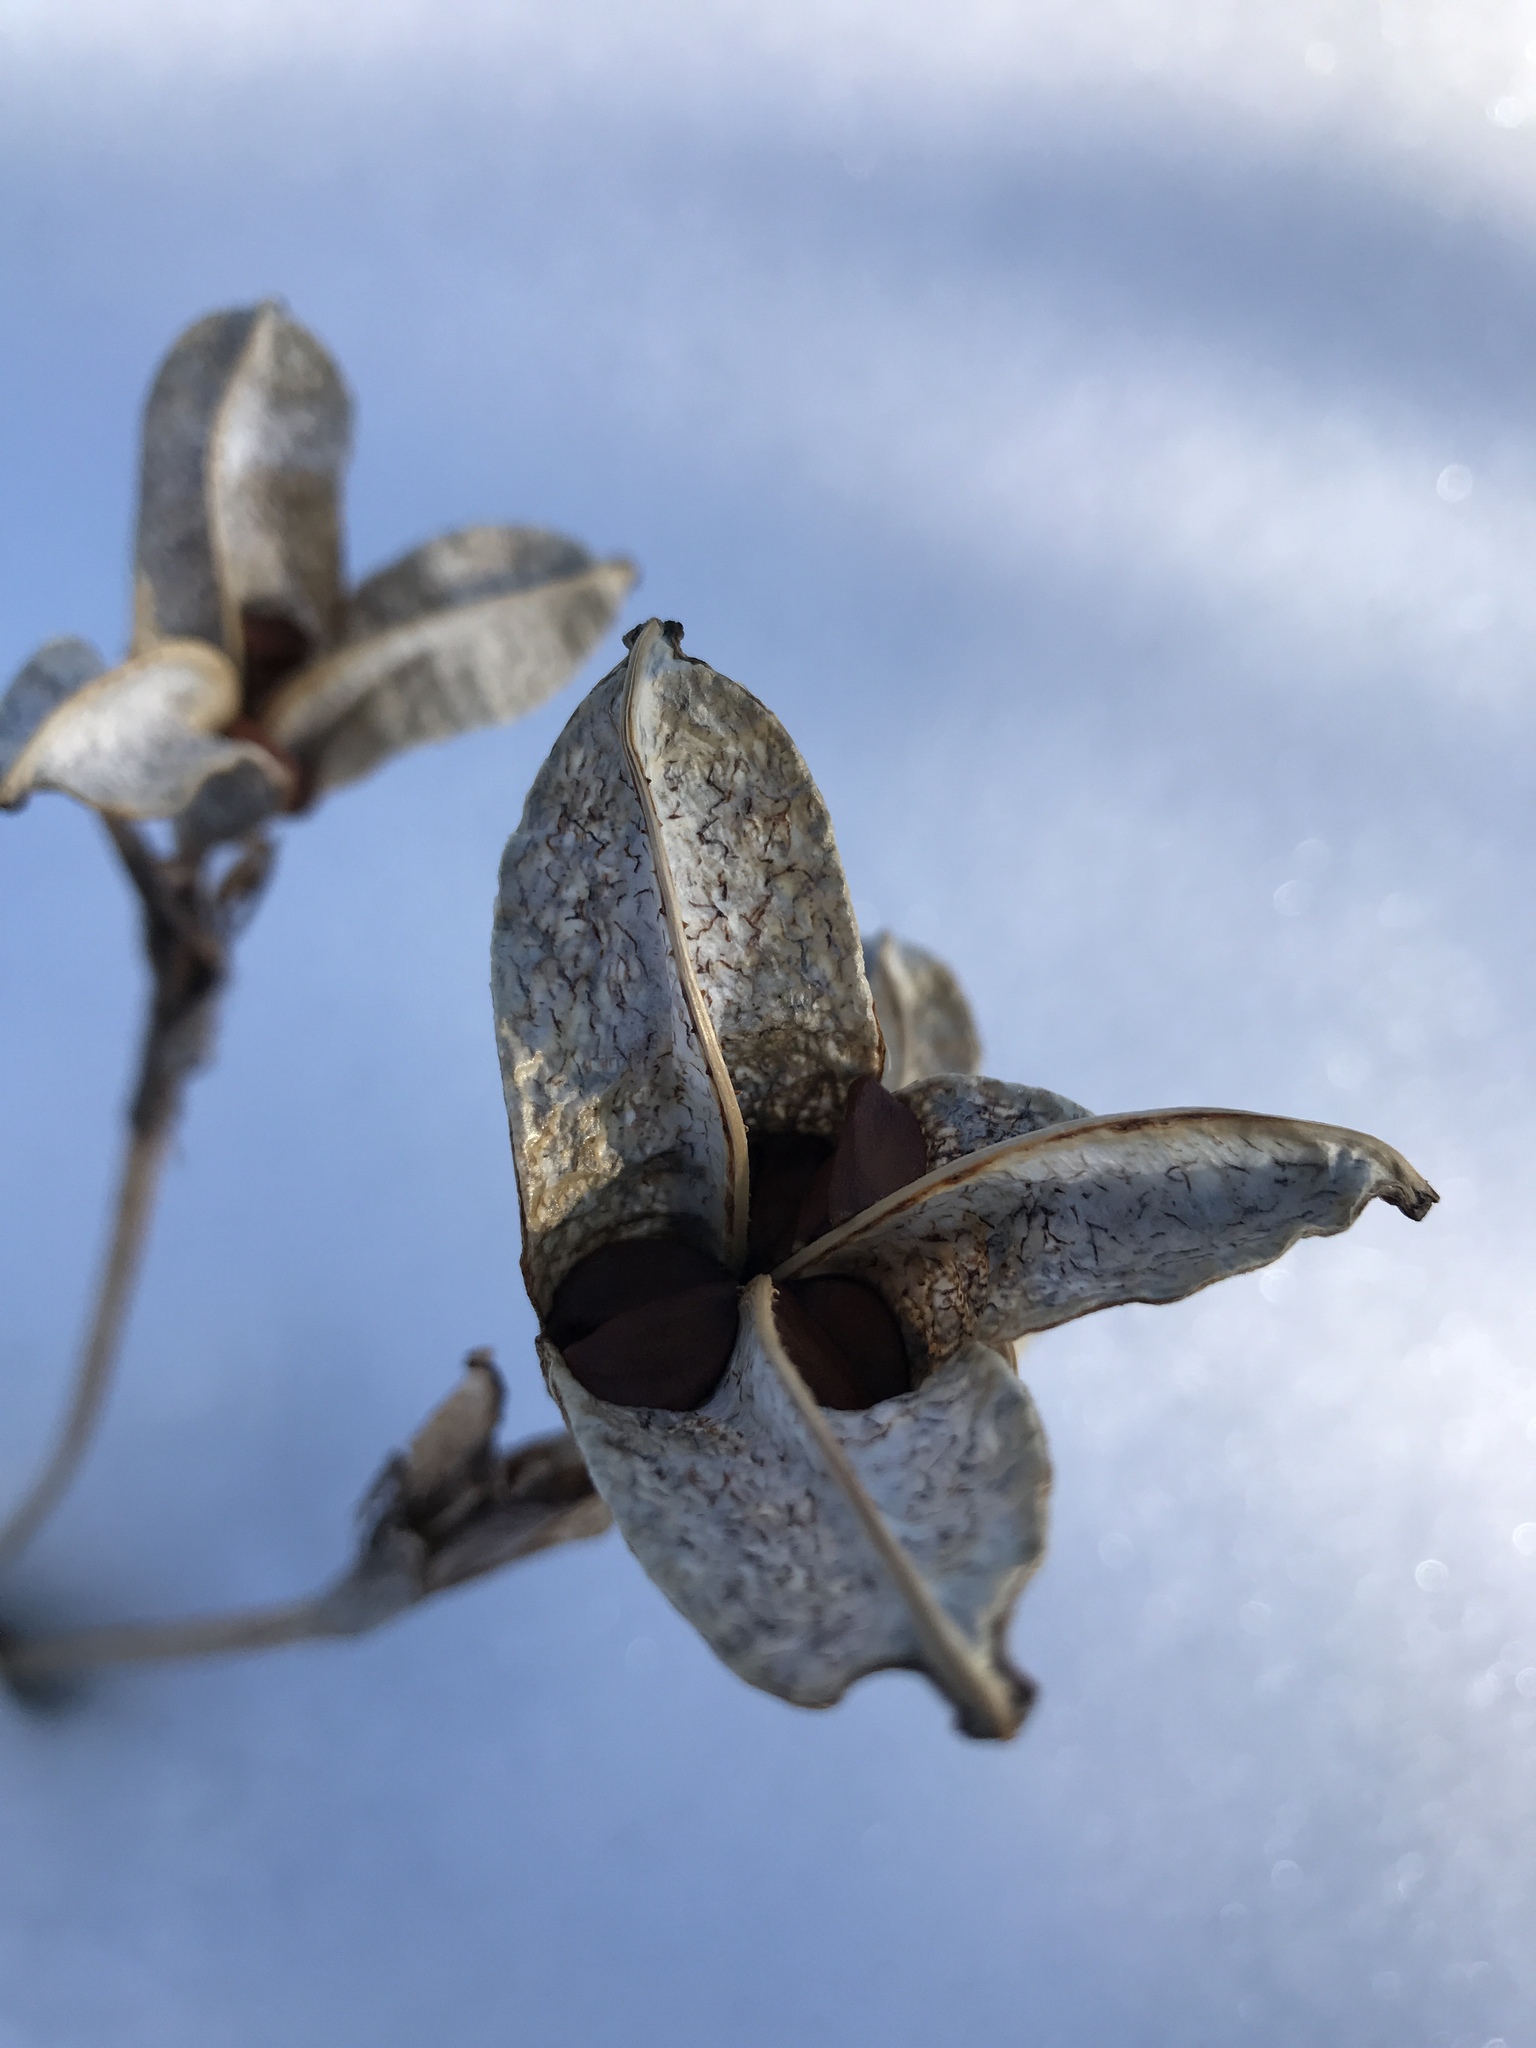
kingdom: Plantae
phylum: Tracheophyta
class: Liliopsida
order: Asparagales
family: Iridaceae
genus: Iris
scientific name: Iris versicolor
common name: Purple iris
